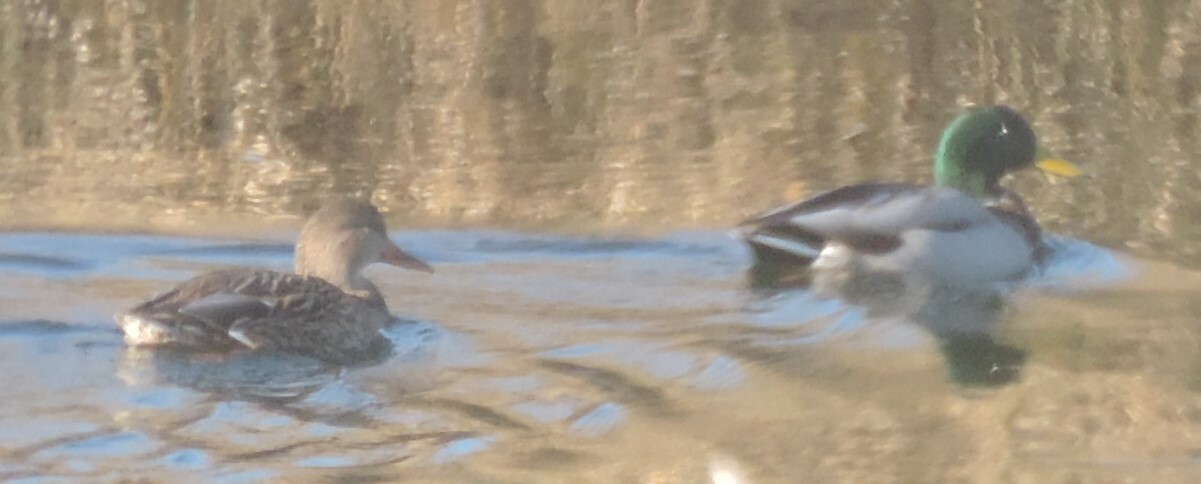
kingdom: Animalia
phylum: Chordata
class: Aves
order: Anseriformes
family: Anatidae
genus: Anas
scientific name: Anas platyrhynchos
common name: Mallard
